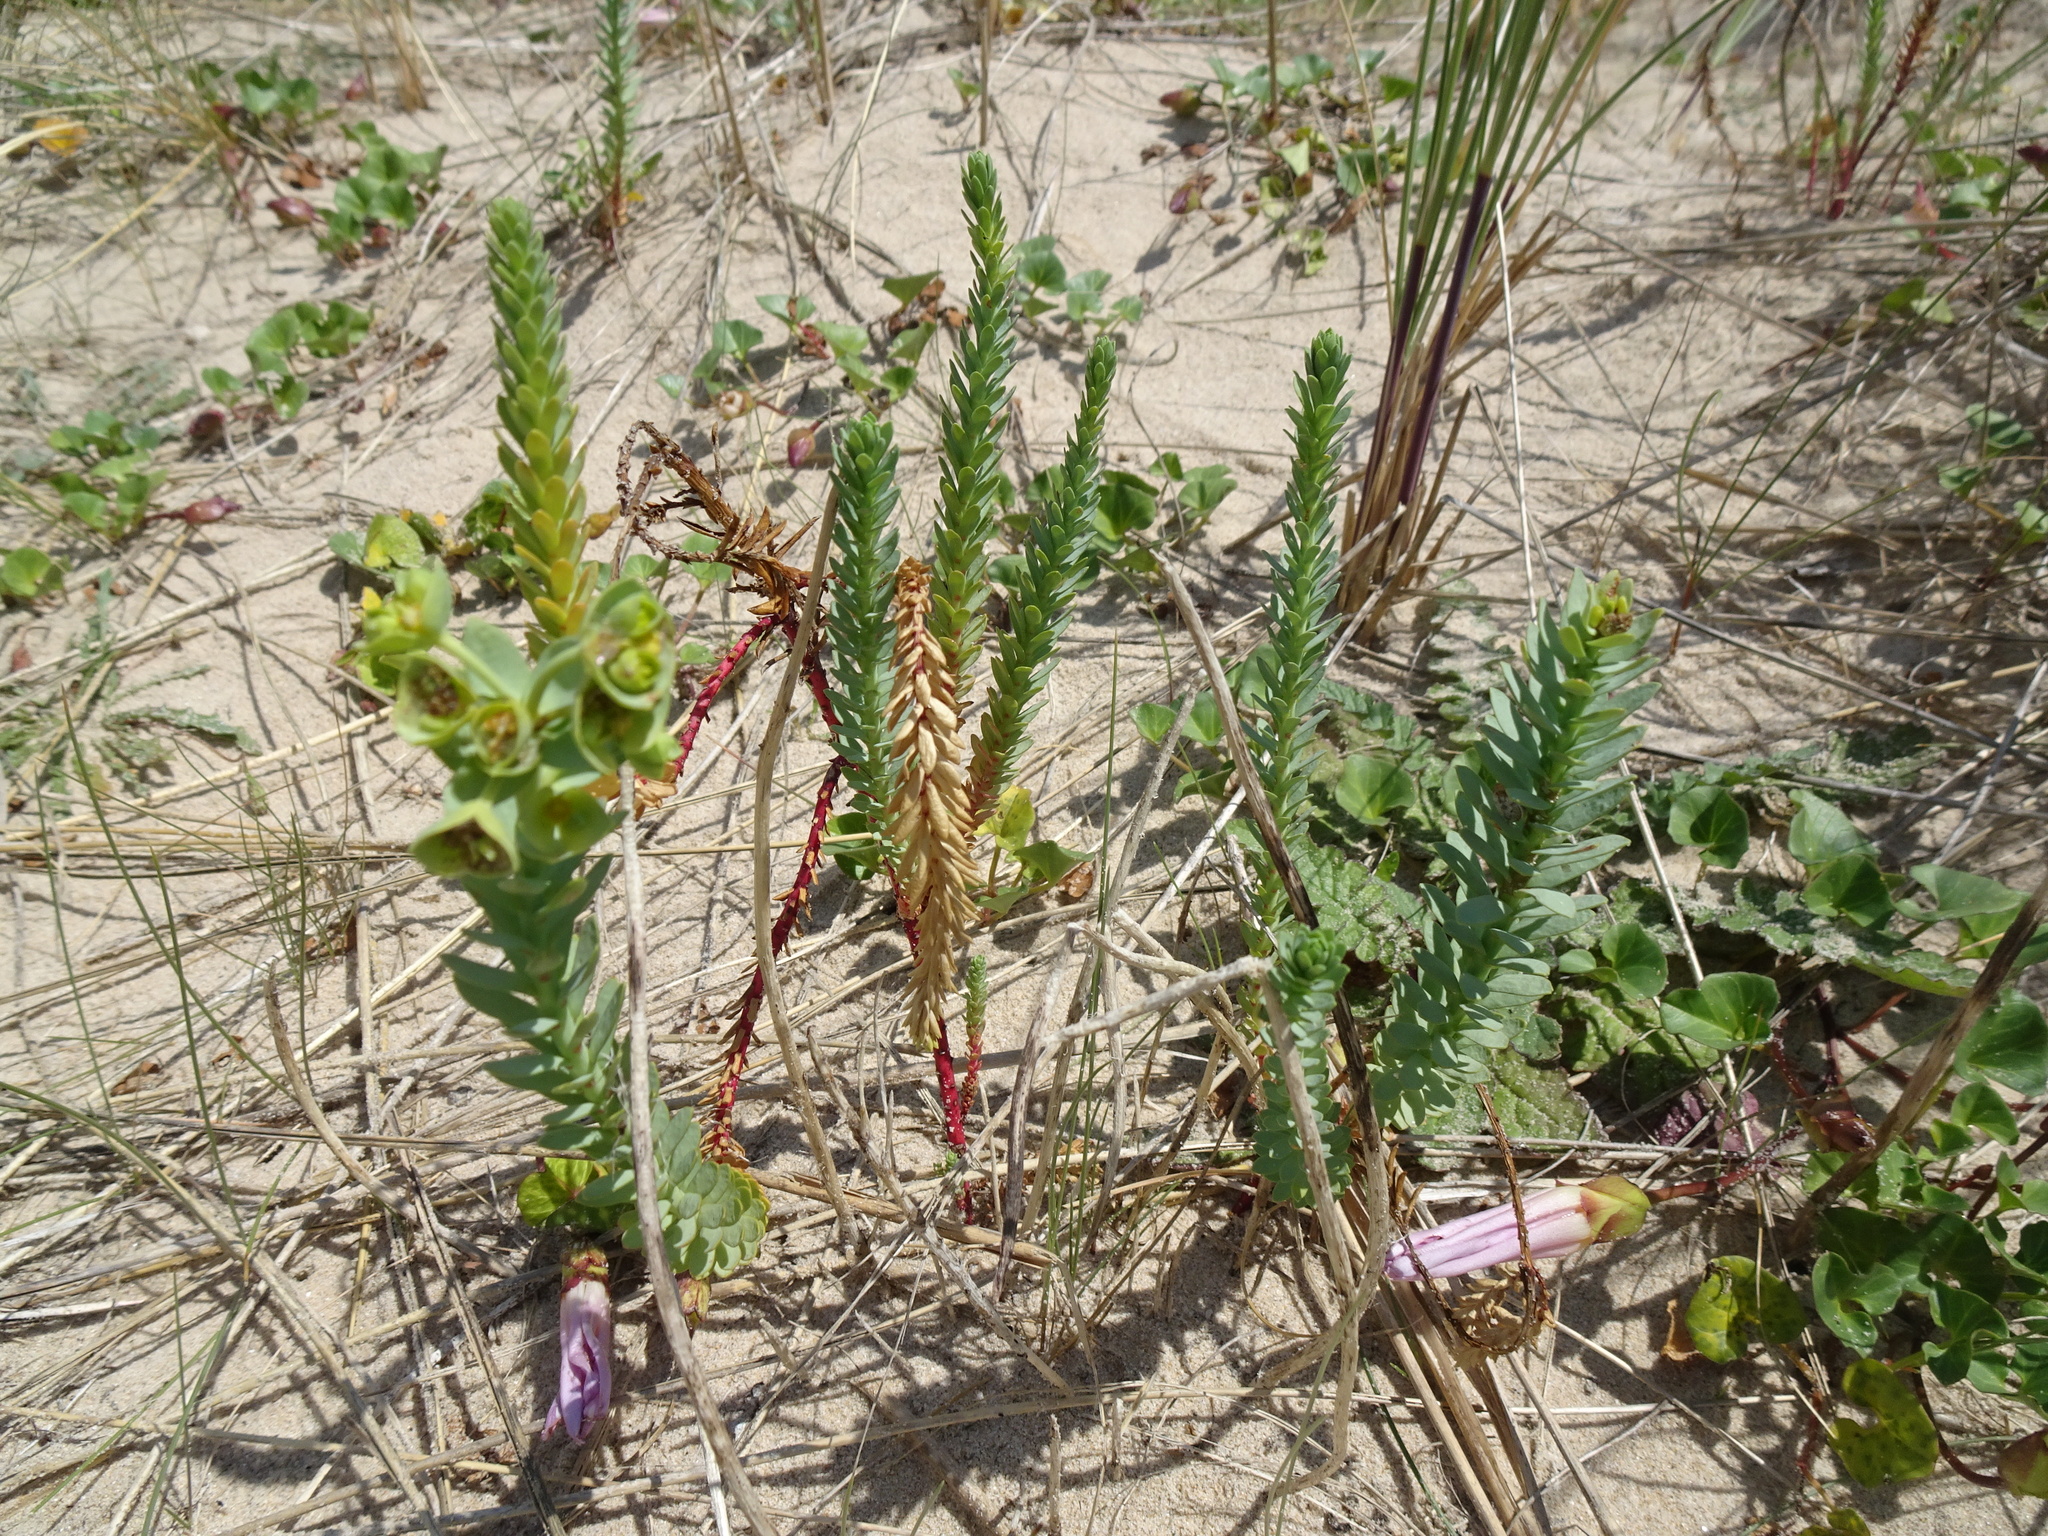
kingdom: Plantae
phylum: Tracheophyta
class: Magnoliopsida
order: Malpighiales
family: Euphorbiaceae
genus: Euphorbia
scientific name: Euphorbia paralias
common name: Sea spurge
